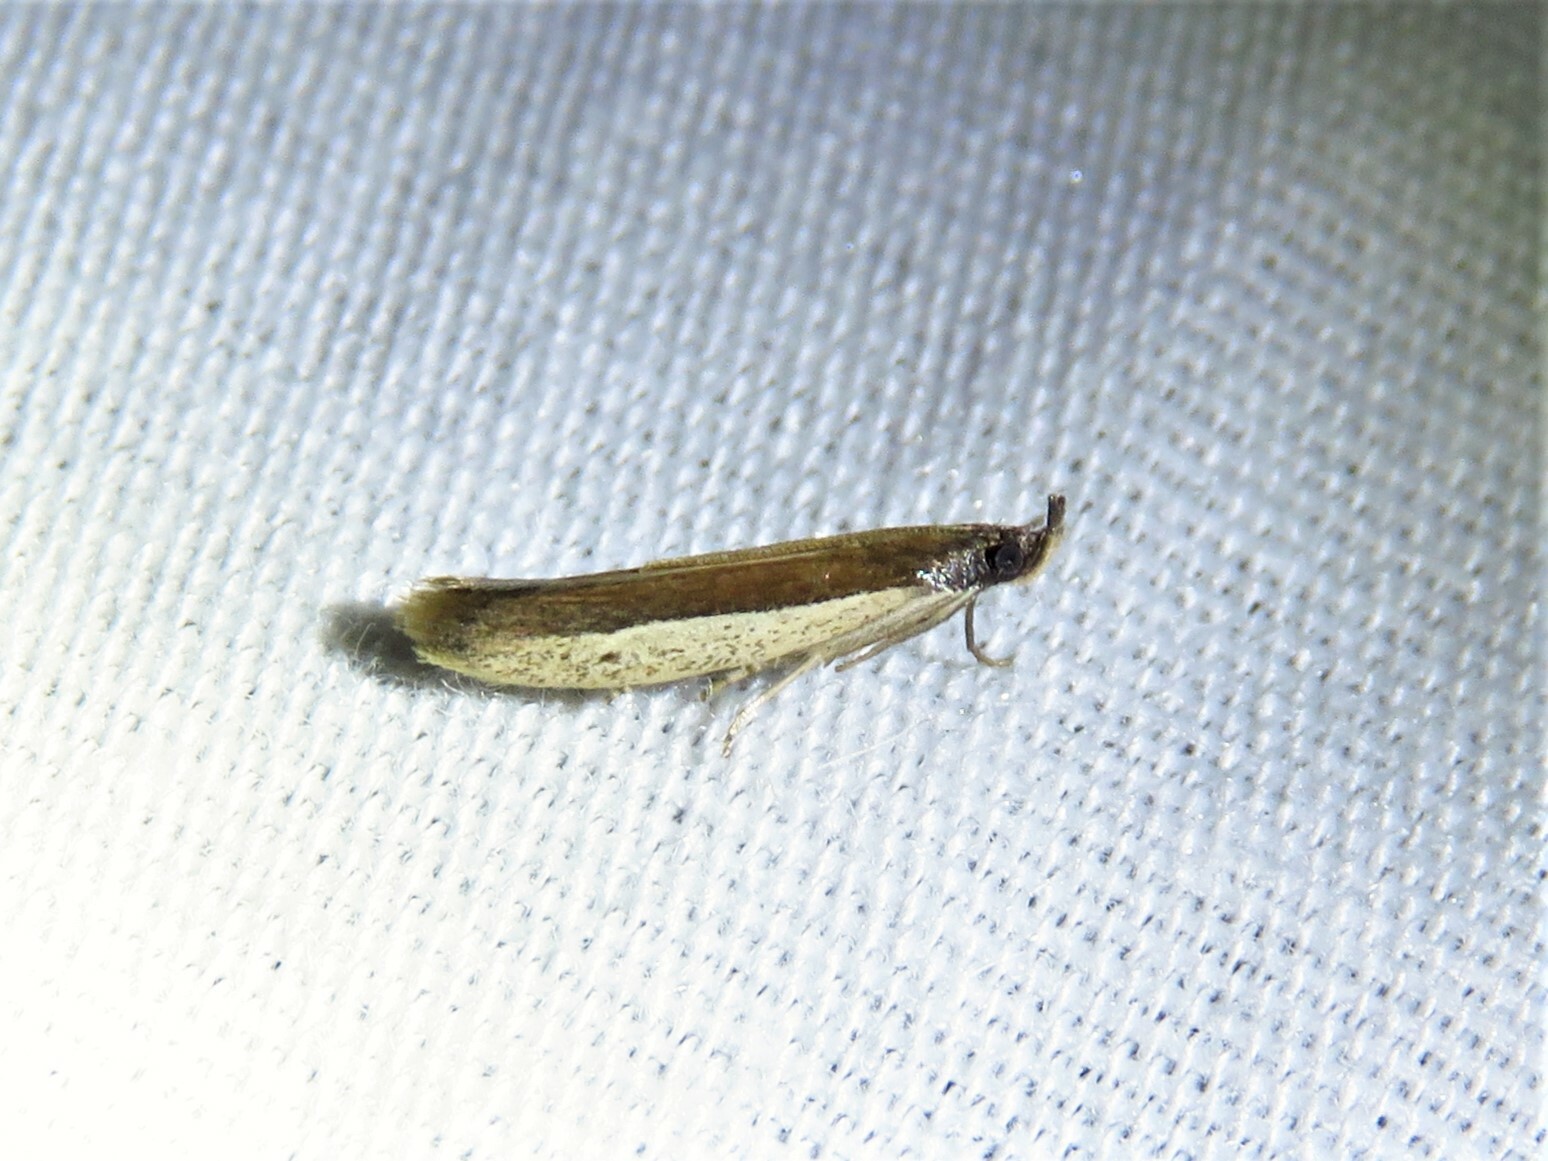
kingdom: Animalia
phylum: Arthropoda
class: Insecta
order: Lepidoptera
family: Pyralidae
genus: Tampa
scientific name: Tampa dimediatella
